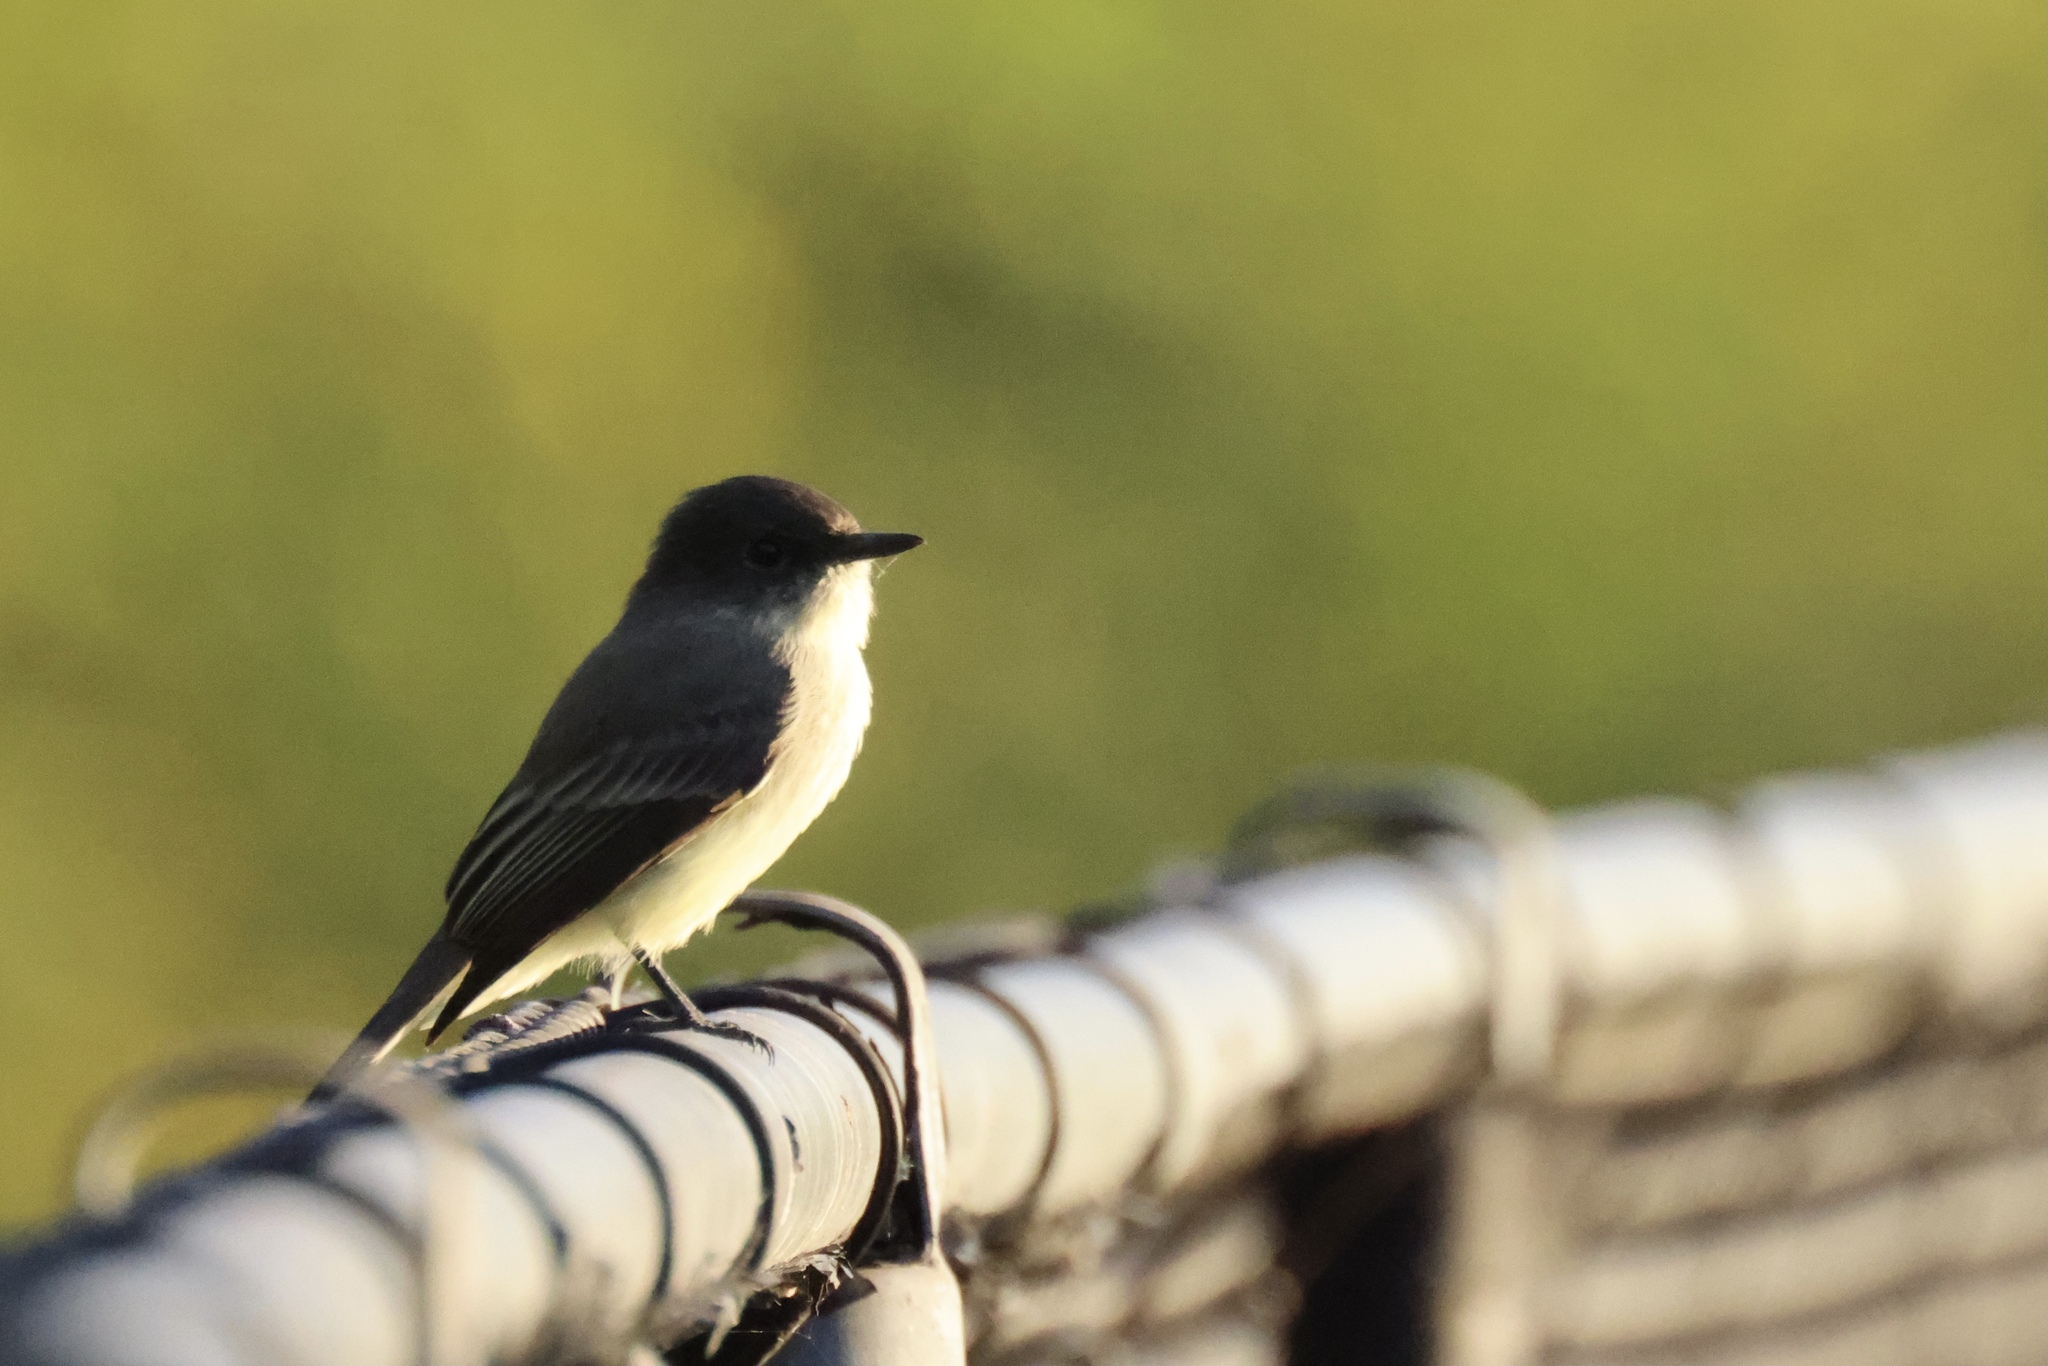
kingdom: Animalia
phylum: Chordata
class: Aves
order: Passeriformes
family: Tyrannidae
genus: Sayornis
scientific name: Sayornis phoebe
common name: Eastern phoebe
